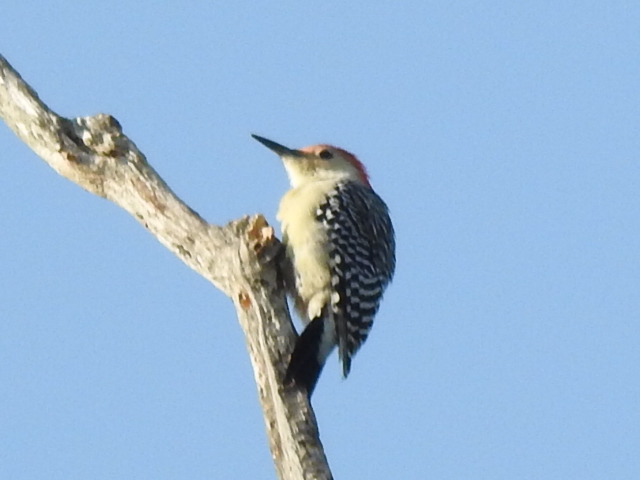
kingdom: Animalia
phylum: Chordata
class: Aves
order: Piciformes
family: Picidae
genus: Melanerpes
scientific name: Melanerpes carolinus
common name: Red-bellied woodpecker
